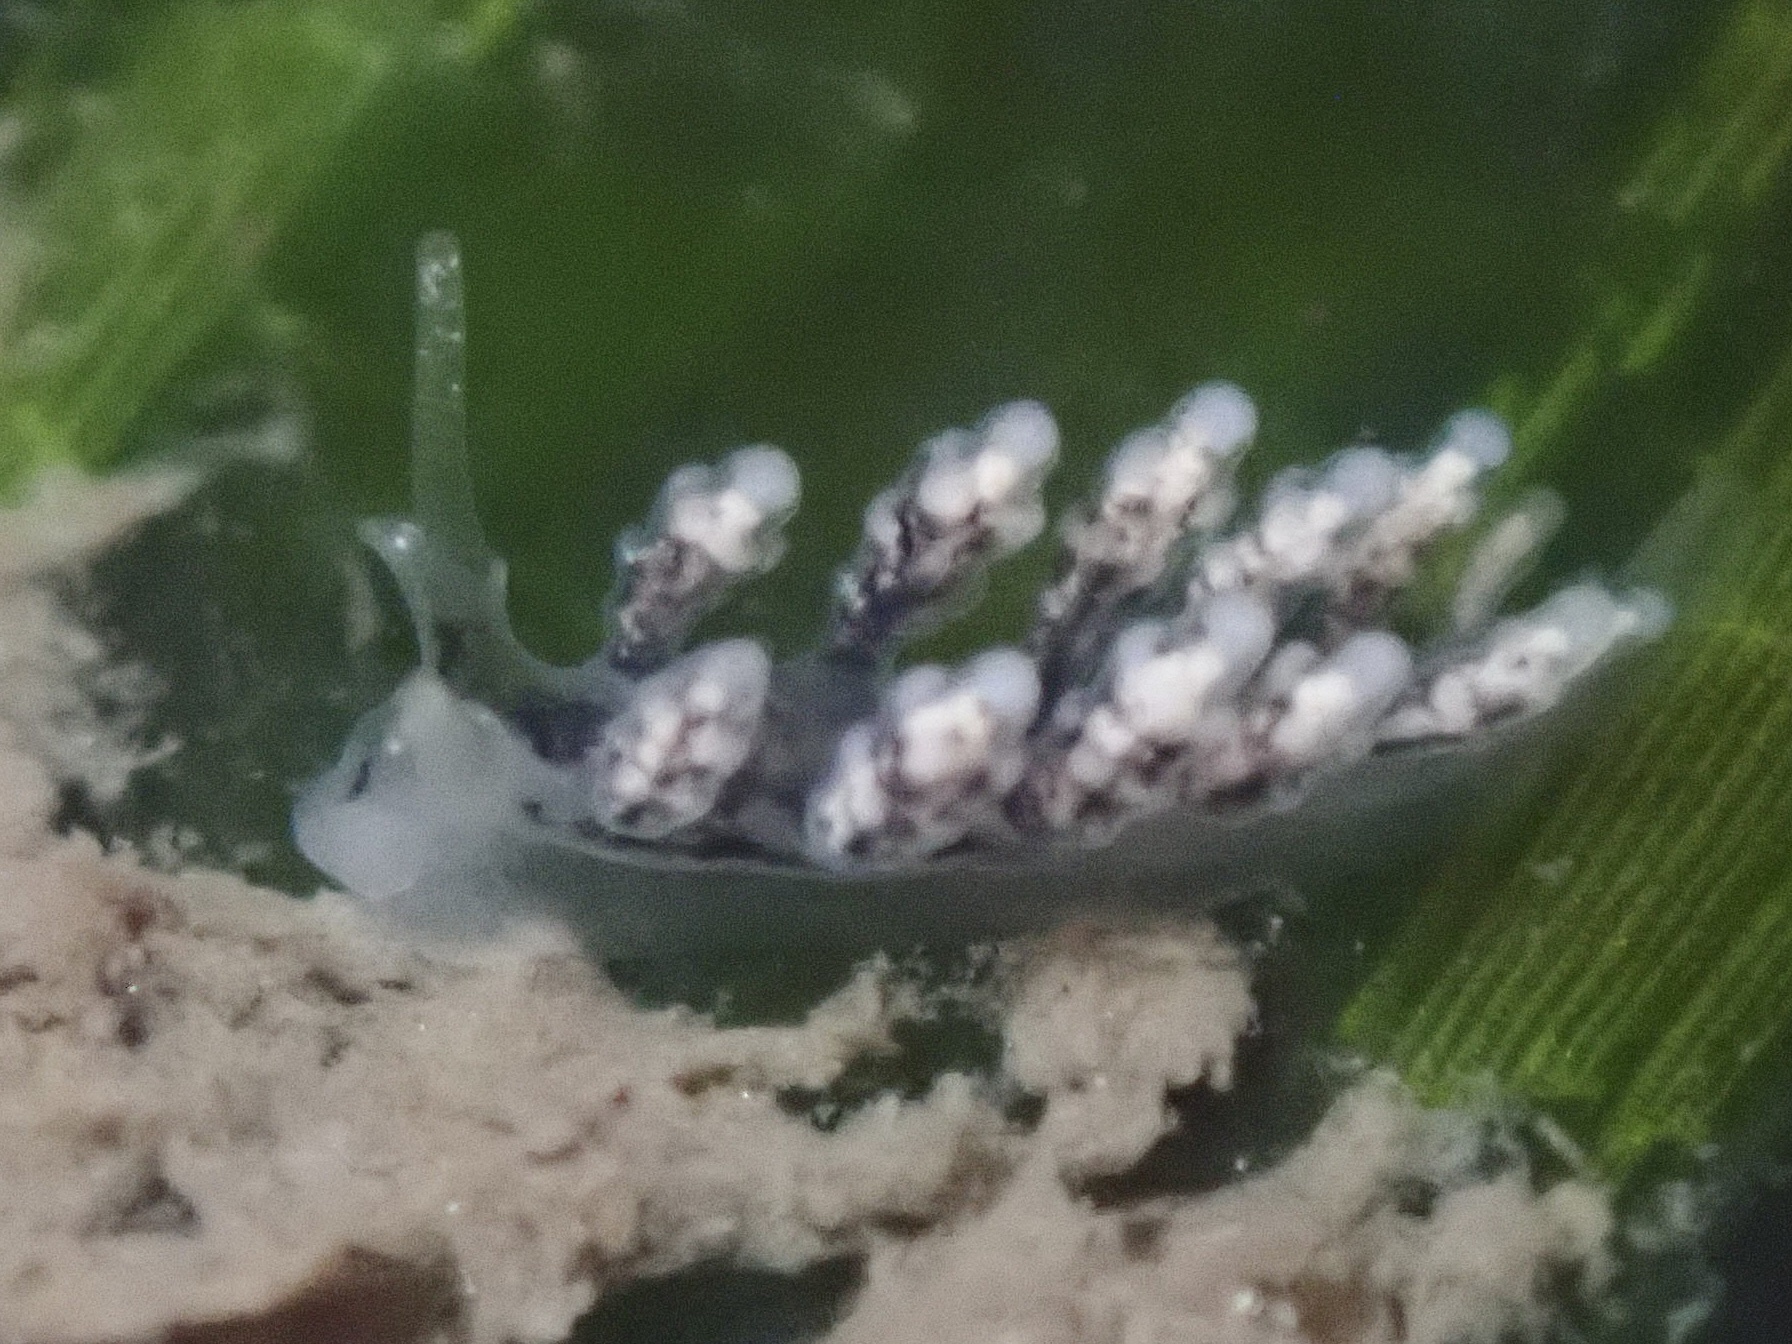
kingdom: Animalia
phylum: Mollusca
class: Gastropoda
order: Nudibranchia
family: Dotidae
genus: Doto
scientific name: Doto kya
